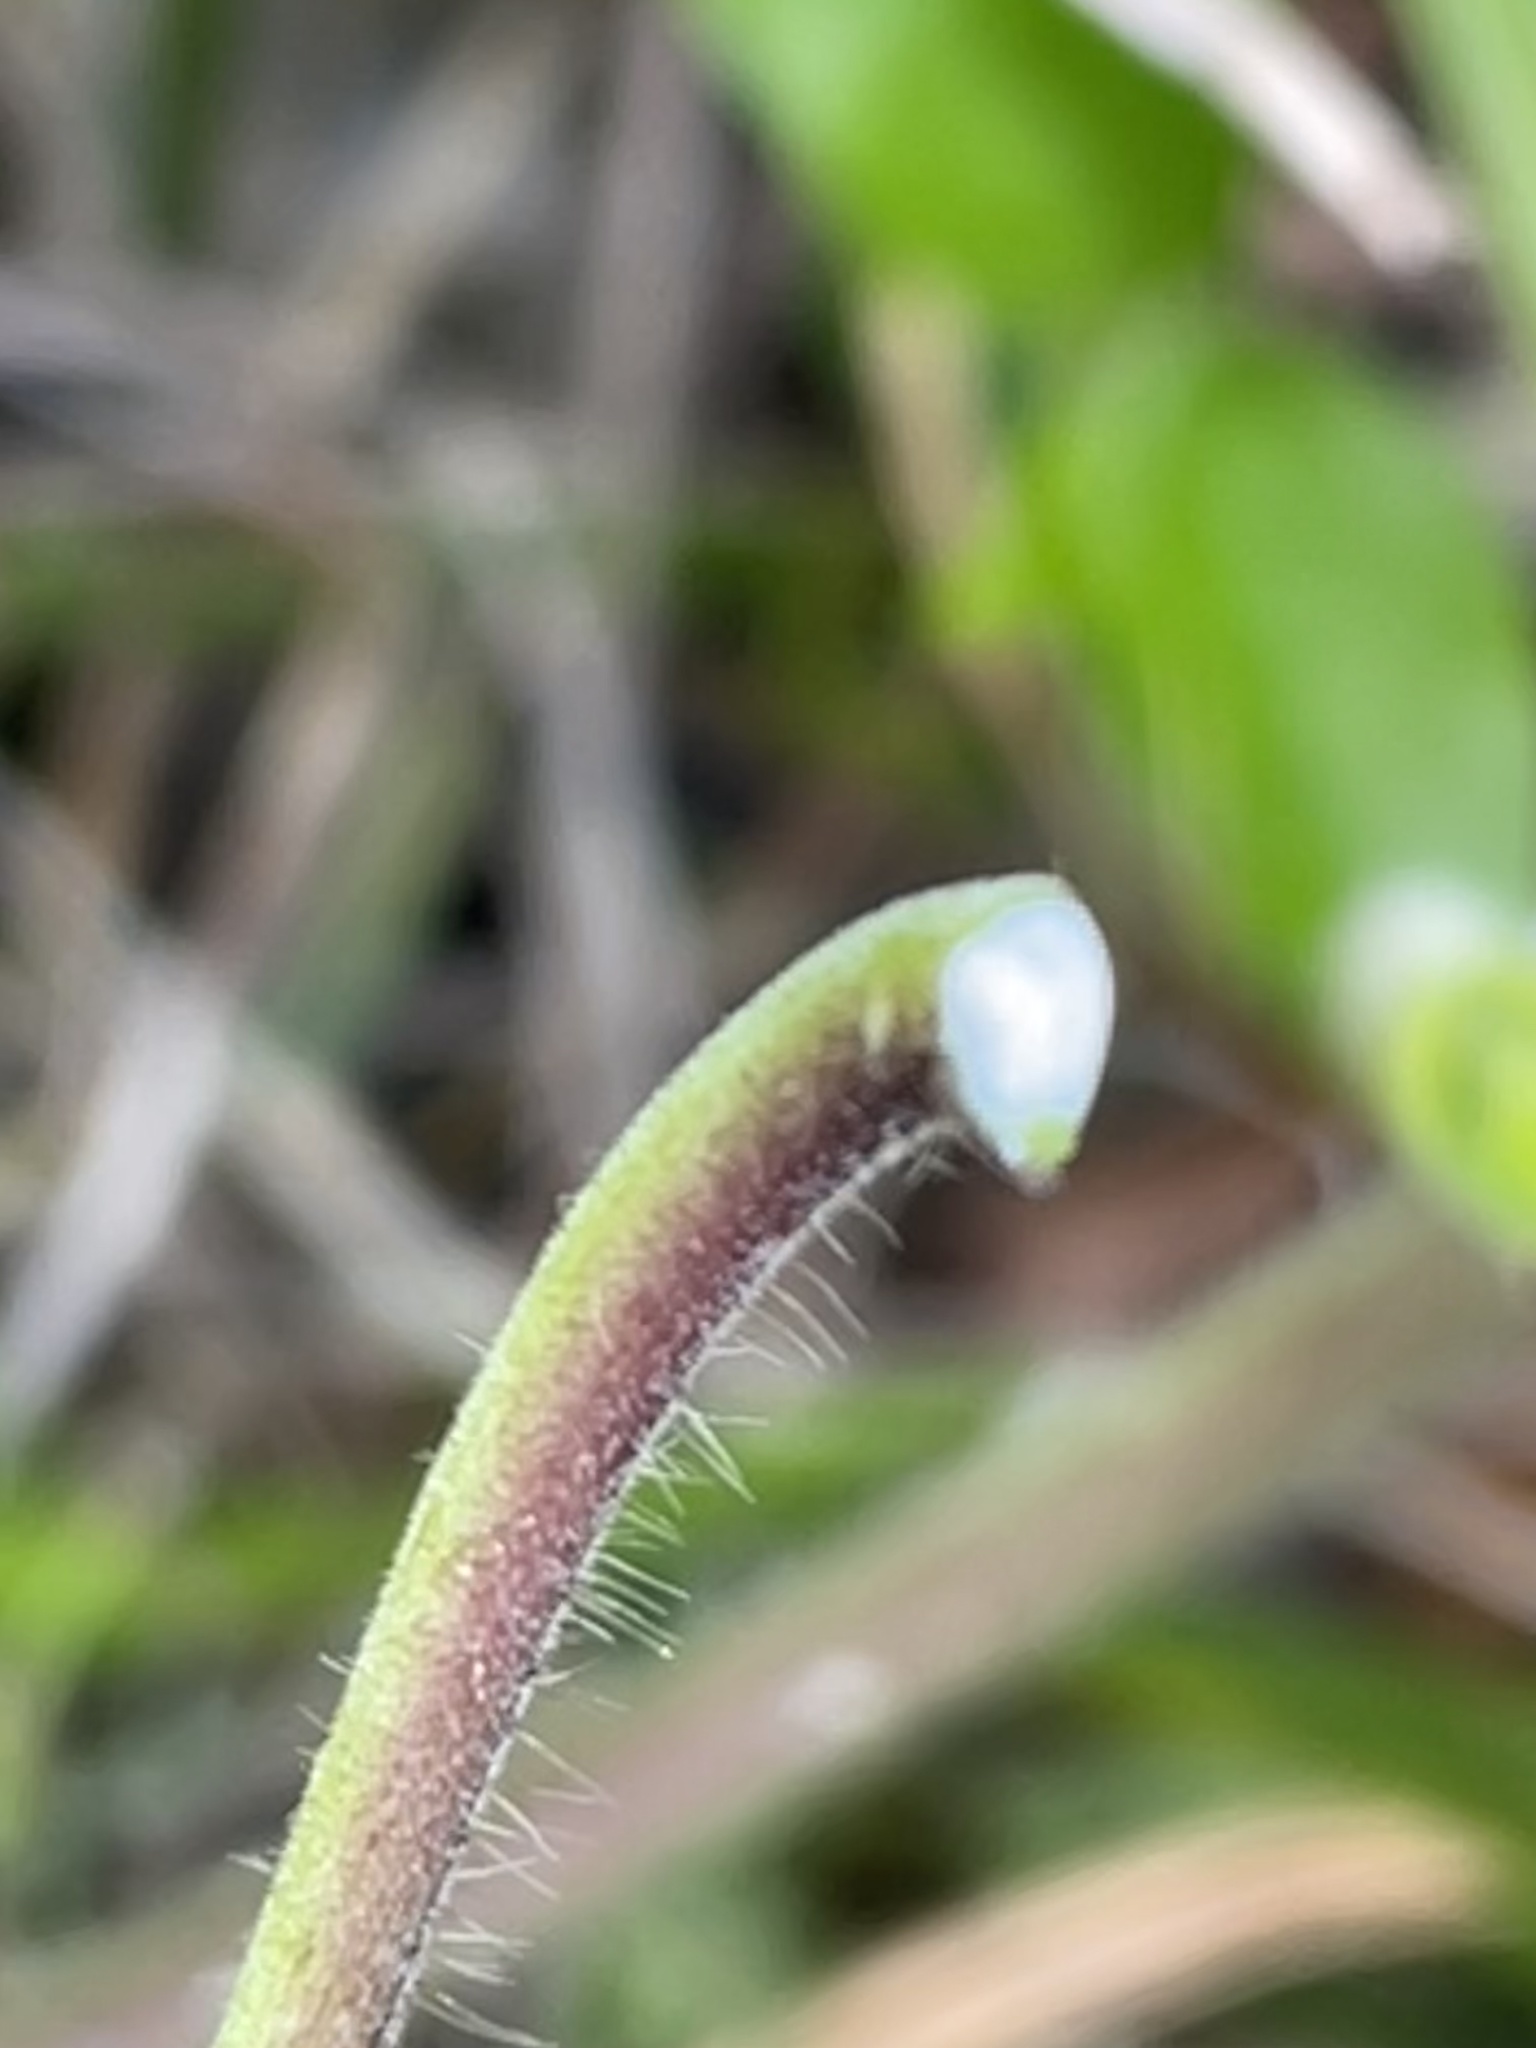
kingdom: Plantae
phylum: Tracheophyta
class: Magnoliopsida
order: Gentianales
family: Apocynaceae
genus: Matelea
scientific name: Matelea carolinensis
